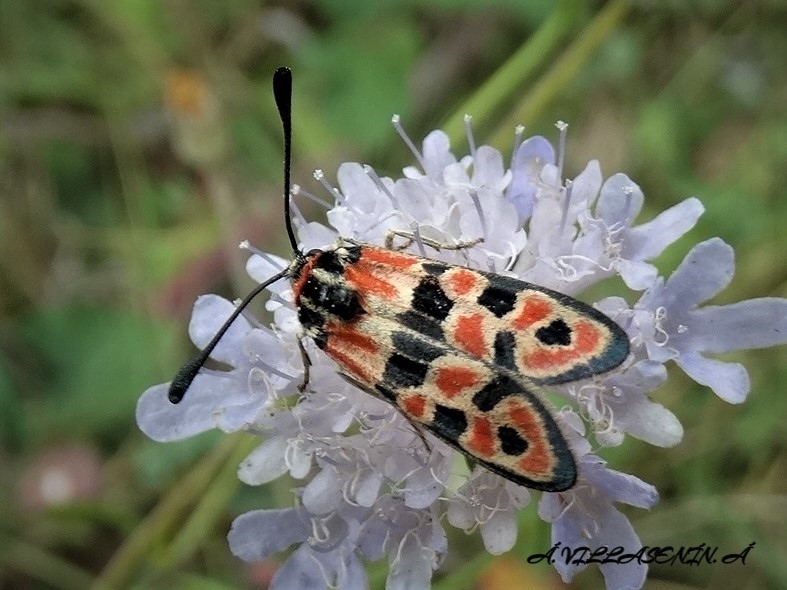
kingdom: Animalia
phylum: Arthropoda
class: Insecta
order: Lepidoptera
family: Zygaenidae
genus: Zygaena
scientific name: Zygaena fausta
